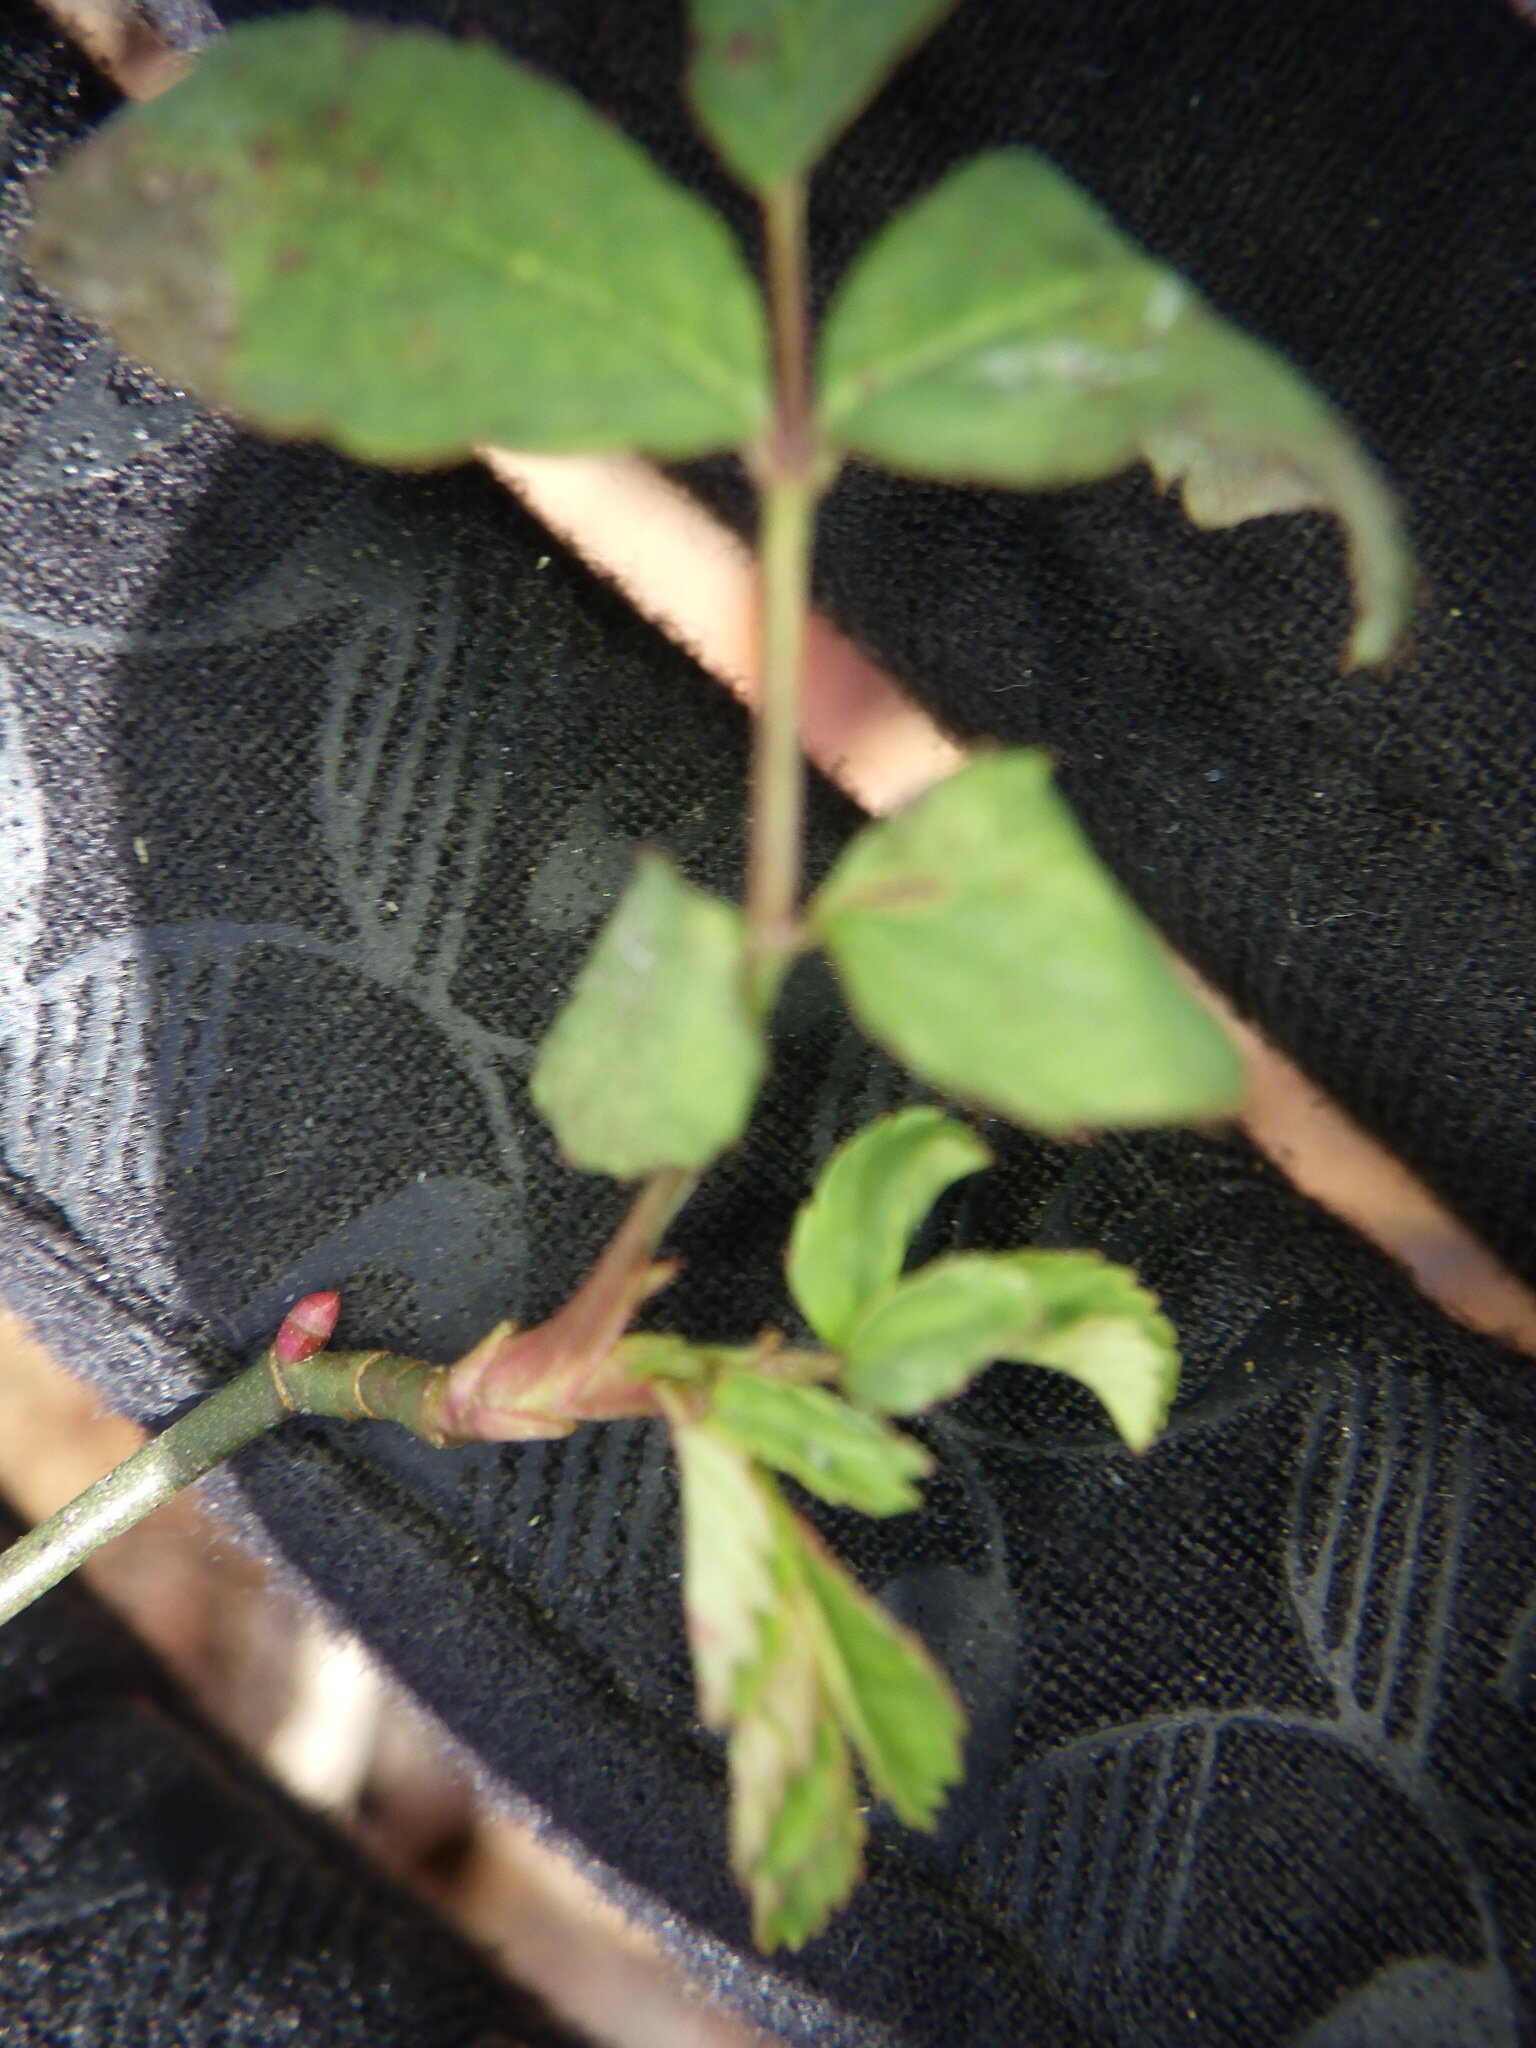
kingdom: Plantae
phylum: Tracheophyta
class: Magnoliopsida
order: Rosales
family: Rosaceae
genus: Rosa
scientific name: Rosa
